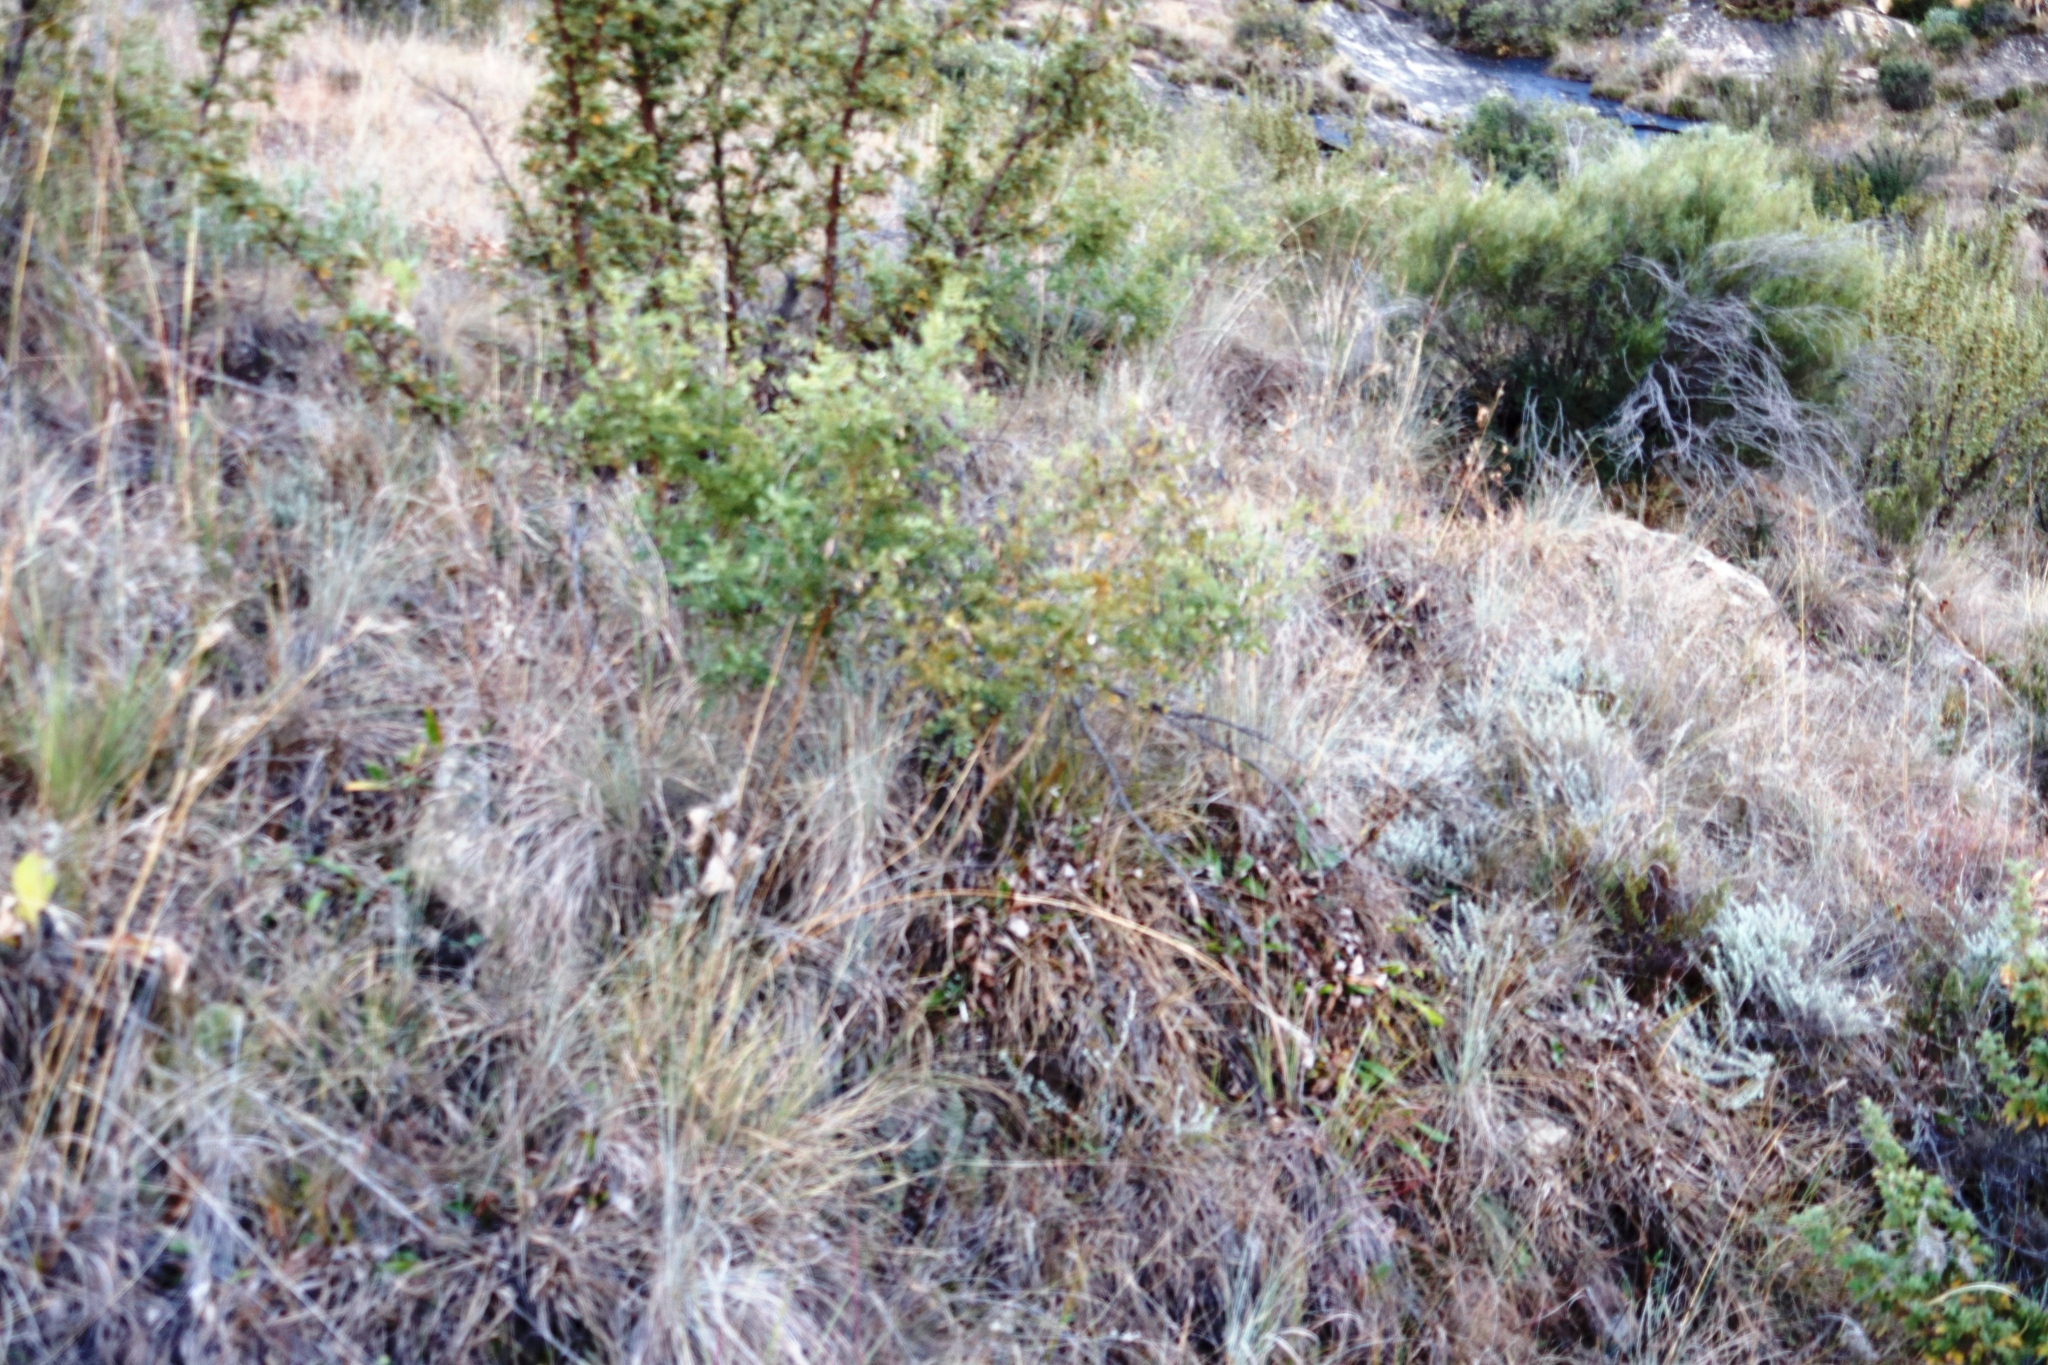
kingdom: Plantae
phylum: Tracheophyta
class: Magnoliopsida
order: Fabales
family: Fabaceae
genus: Calpurnia
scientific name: Calpurnia sericea
